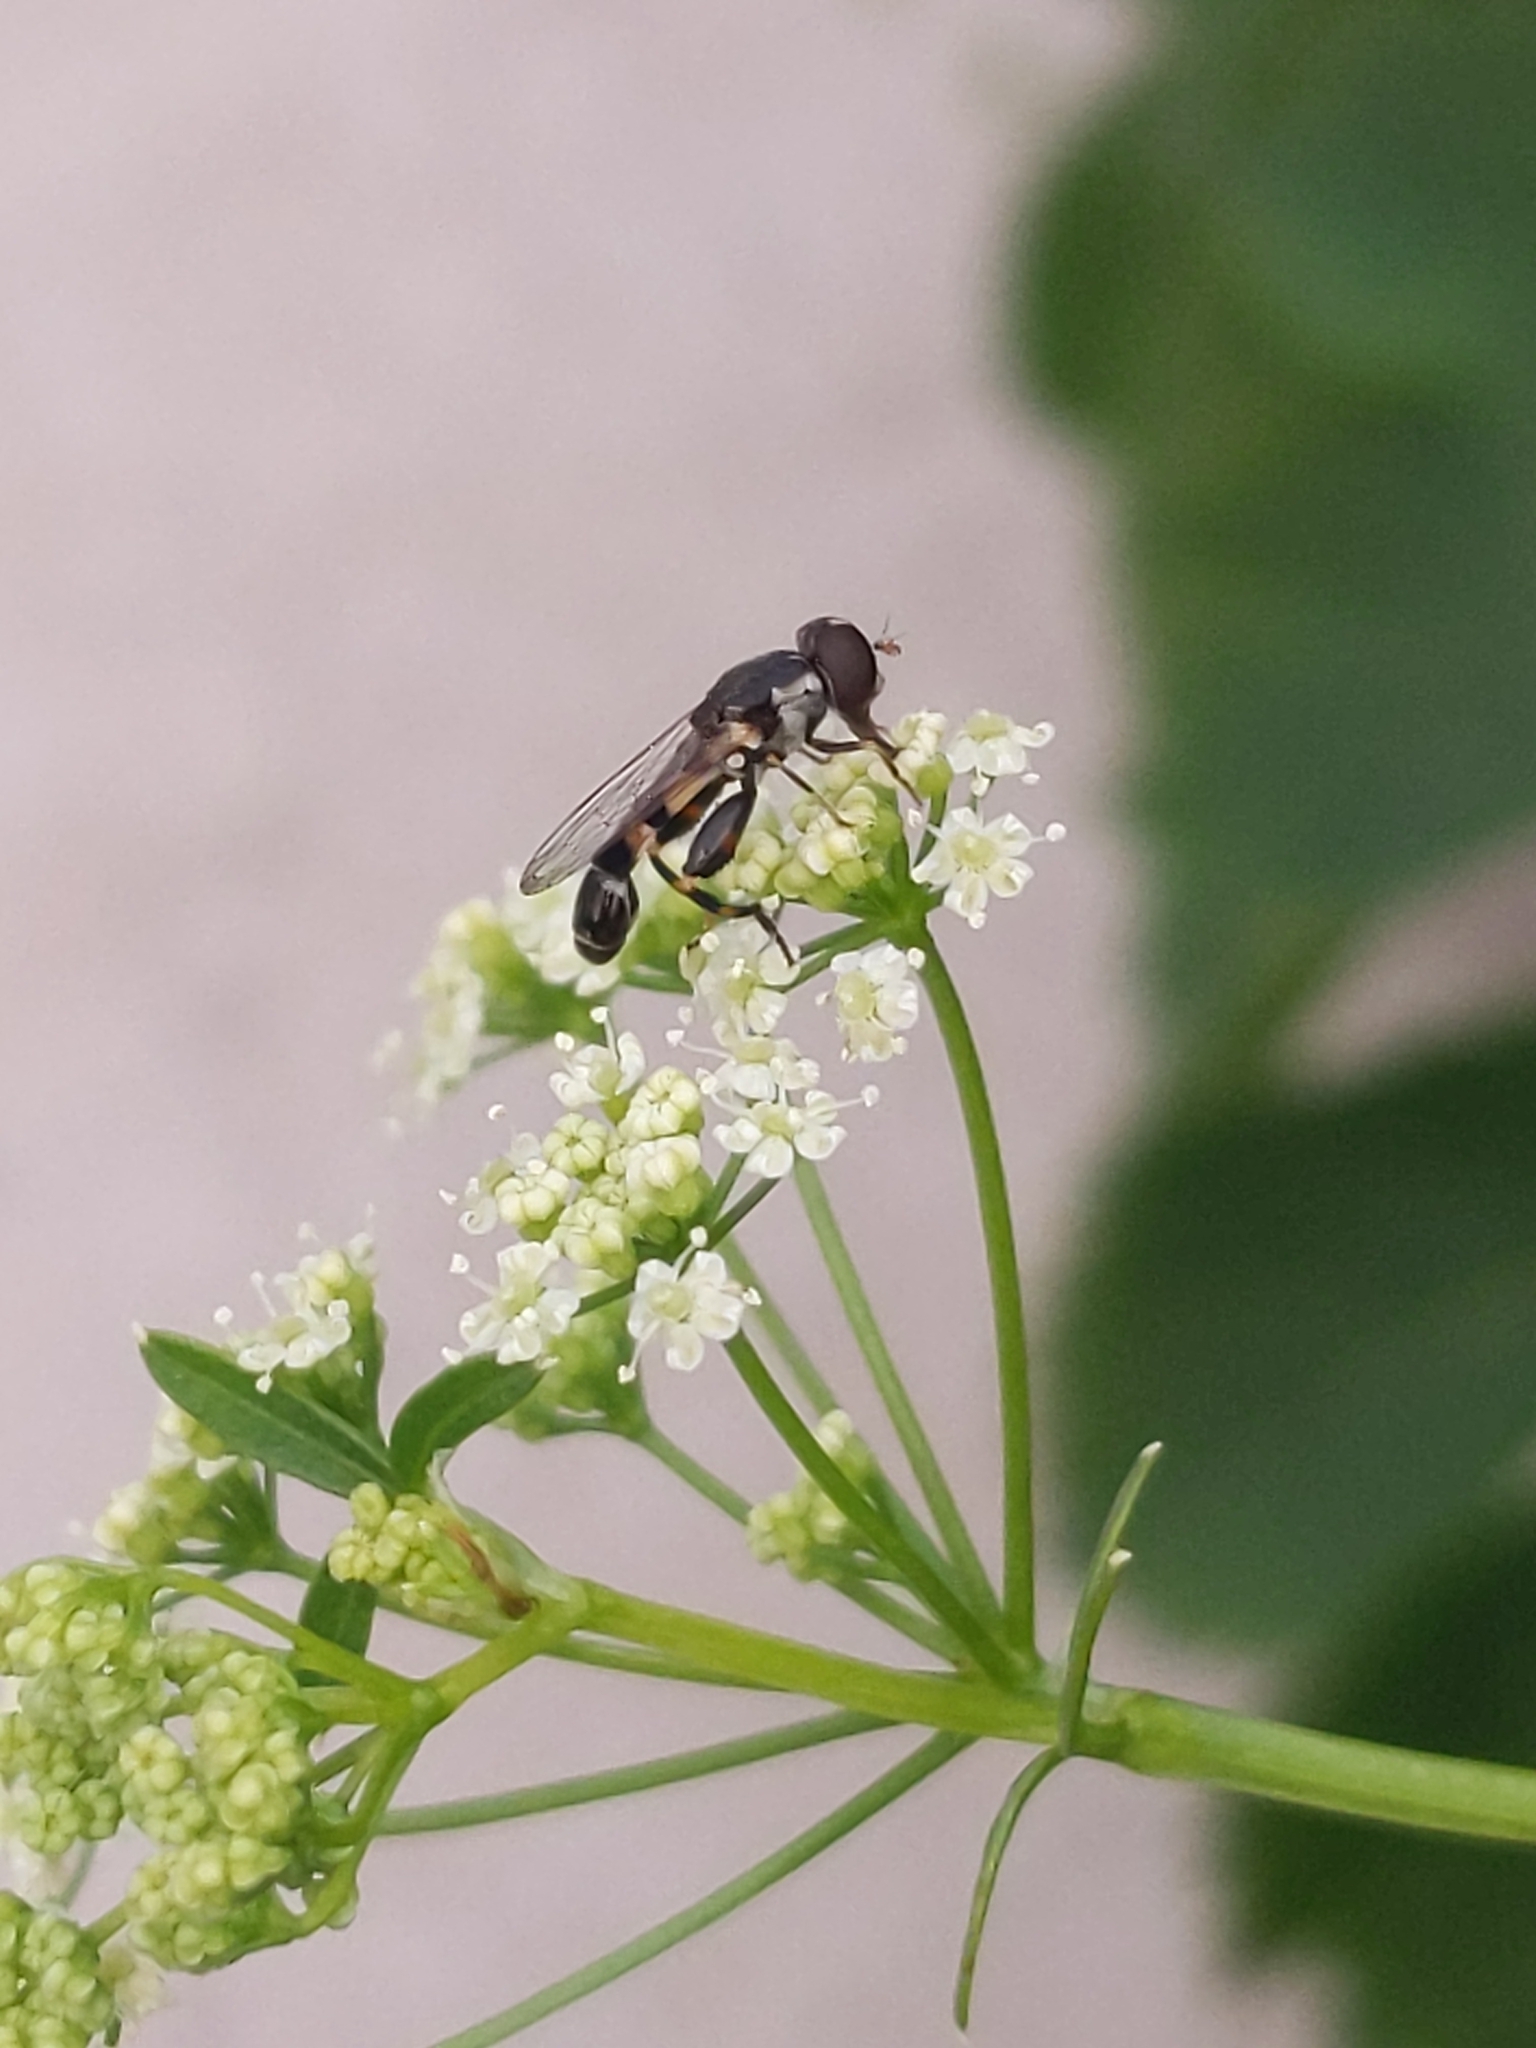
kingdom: Animalia
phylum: Arthropoda
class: Insecta
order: Diptera
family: Syrphidae
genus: Syritta
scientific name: Syritta pipiens
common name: Hover fly
